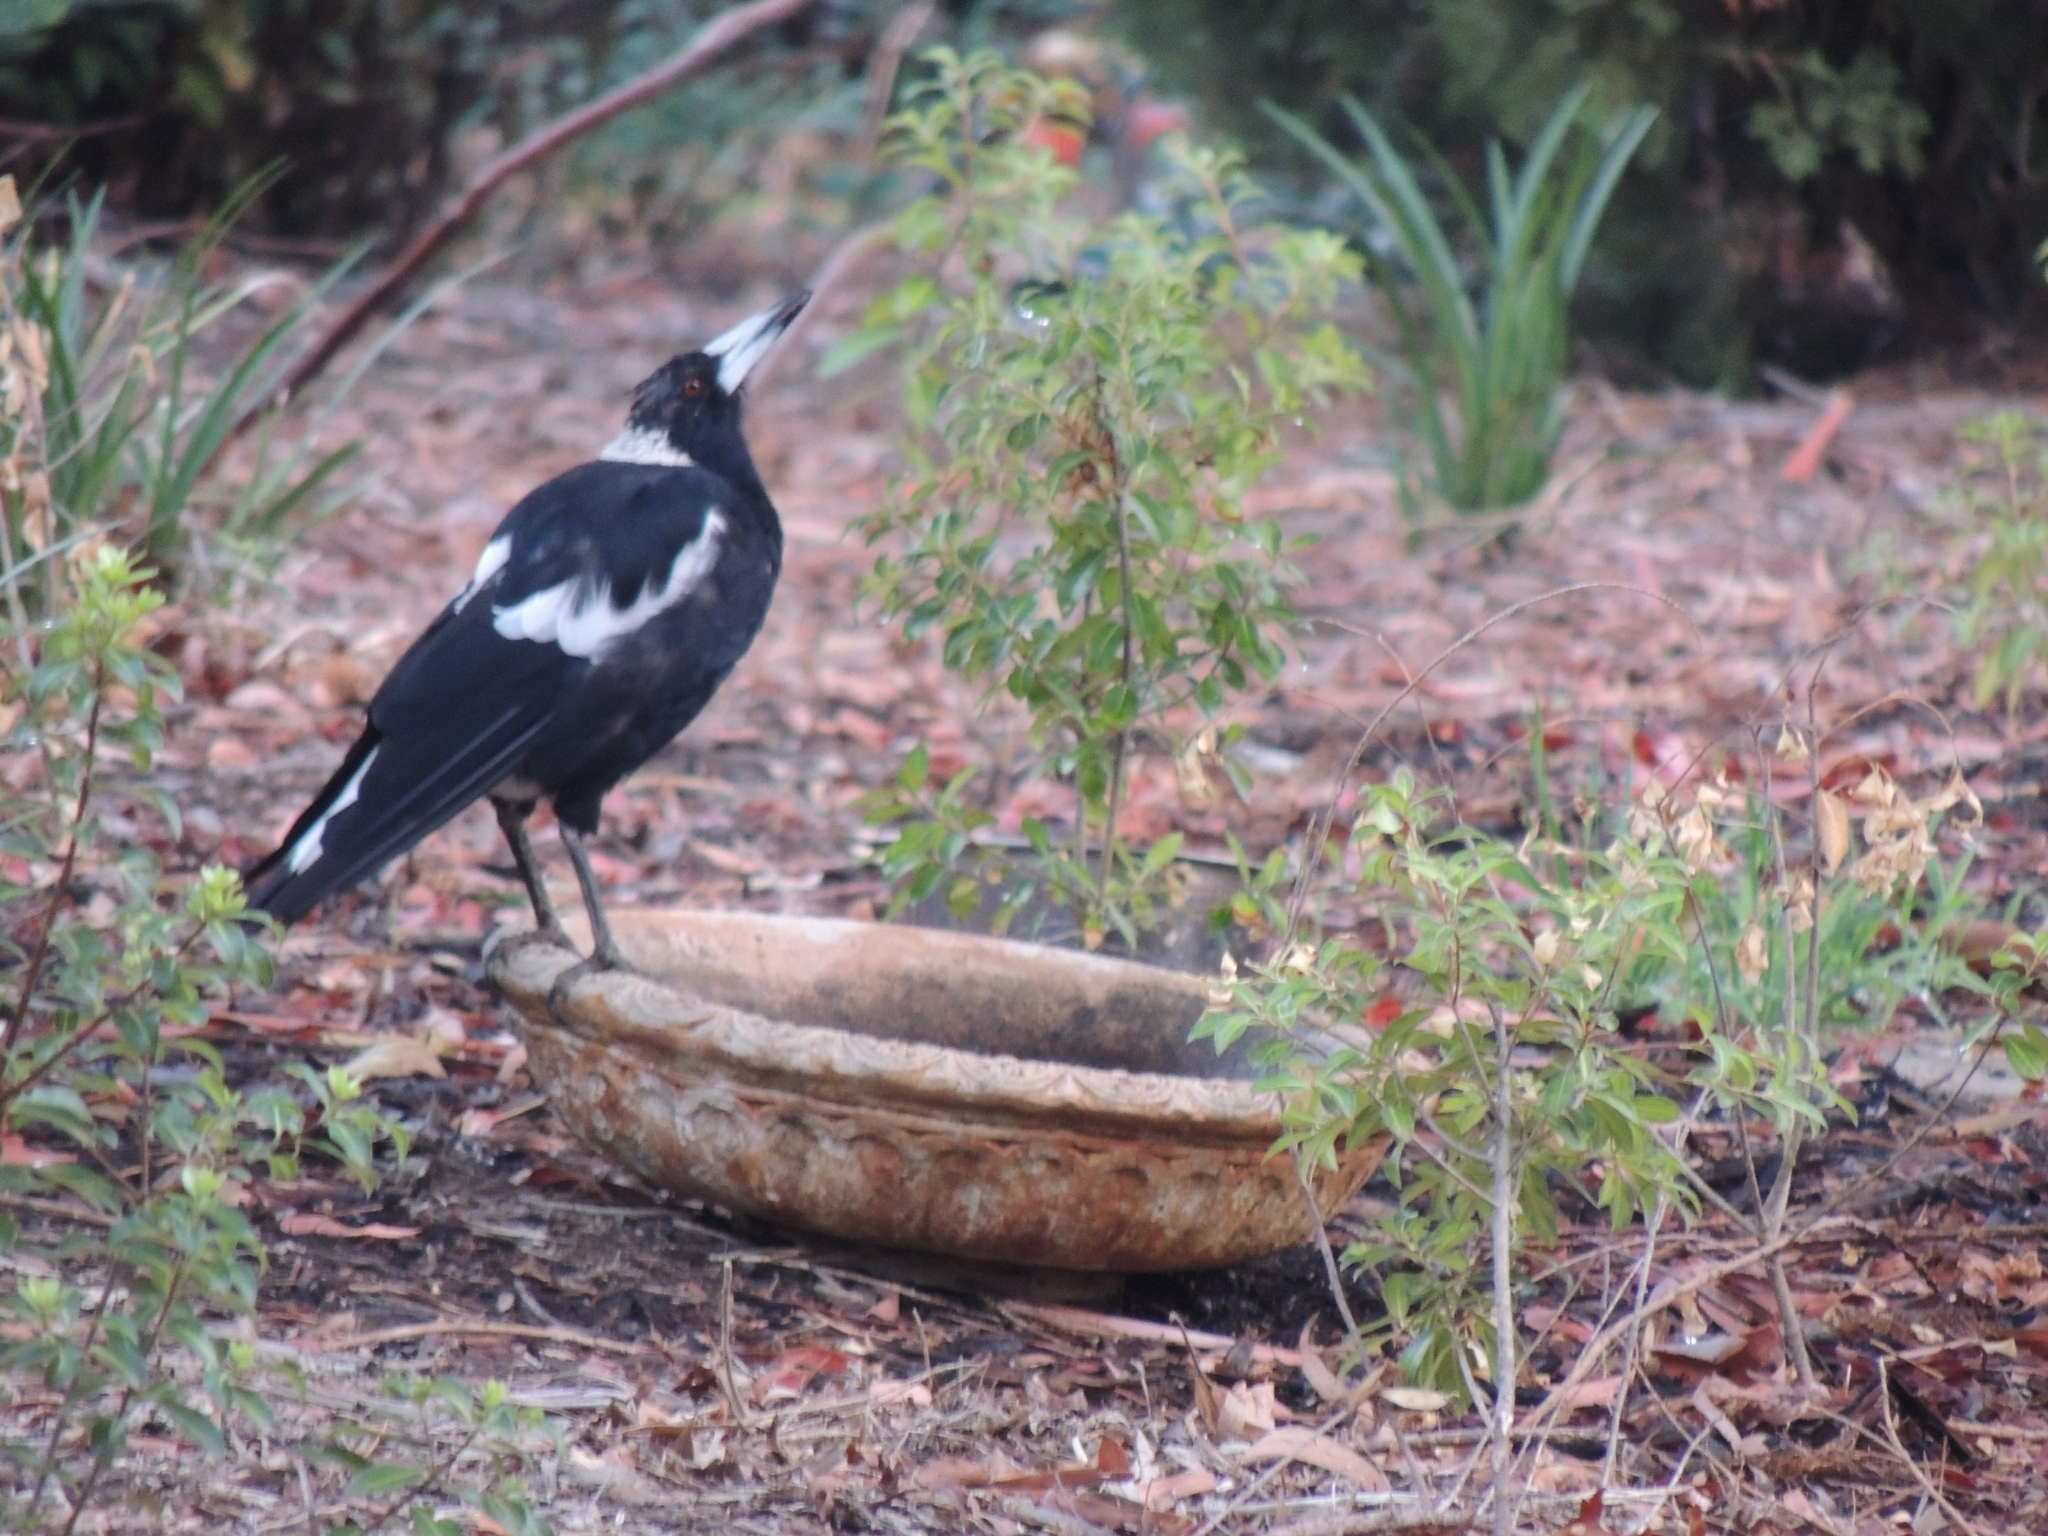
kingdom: Animalia
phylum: Chordata
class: Aves
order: Passeriformes
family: Cracticidae
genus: Gymnorhina
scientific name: Gymnorhina tibicen
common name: Australian magpie
